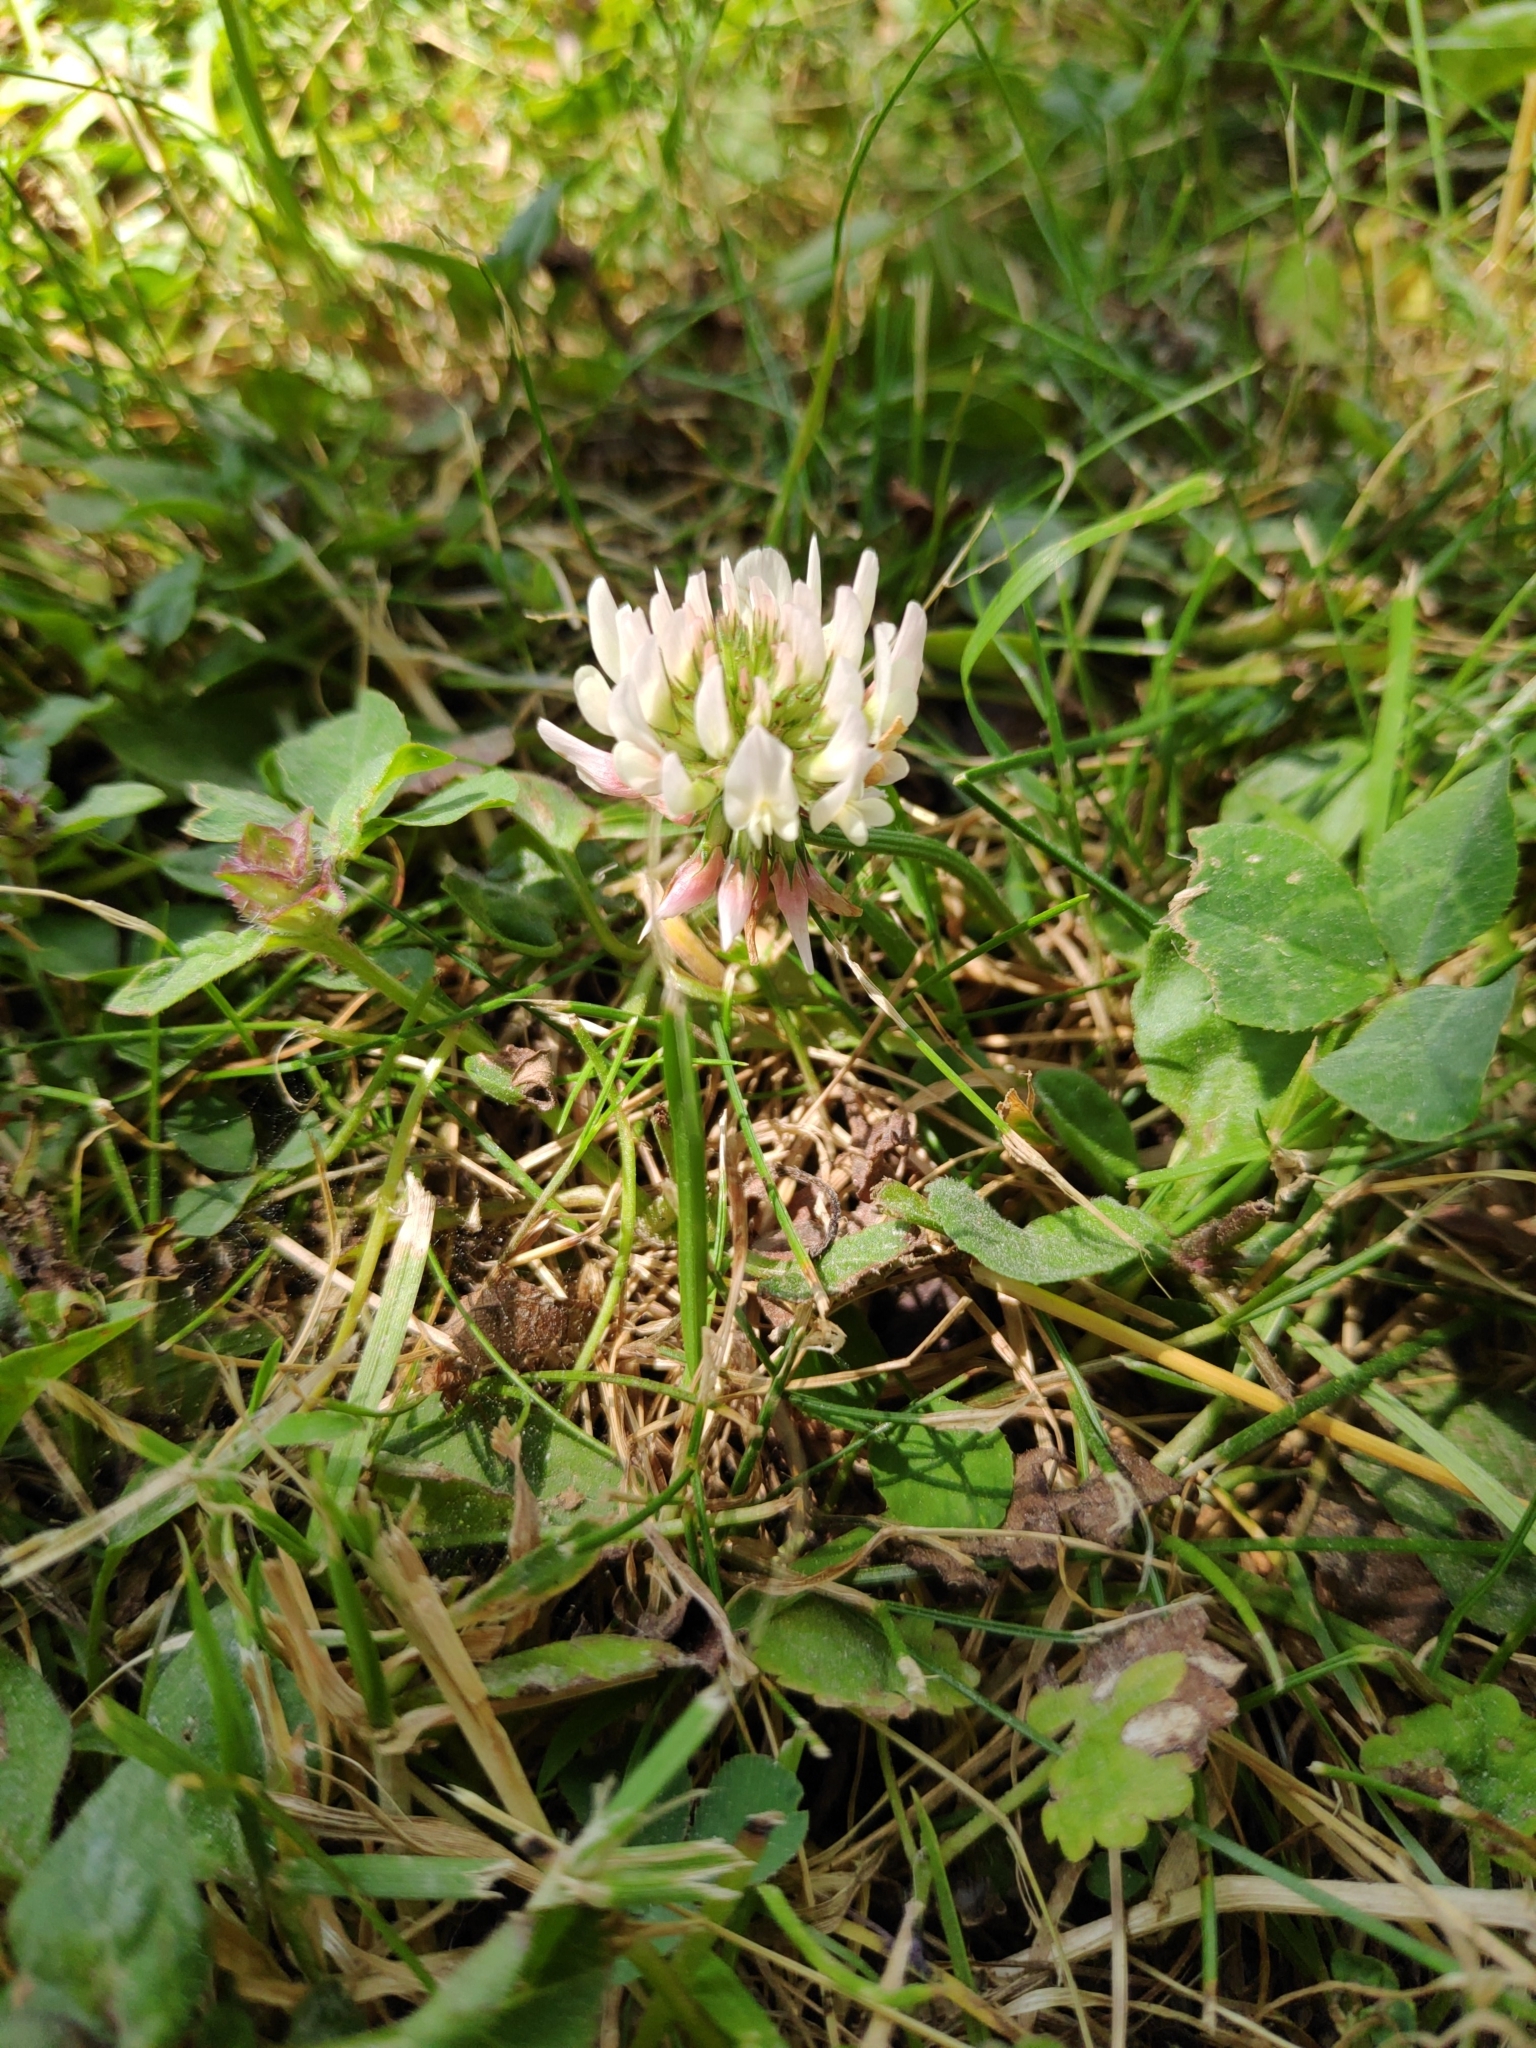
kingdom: Plantae
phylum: Tracheophyta
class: Magnoliopsida
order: Fabales
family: Fabaceae
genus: Trifolium
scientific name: Trifolium repens
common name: White clover
